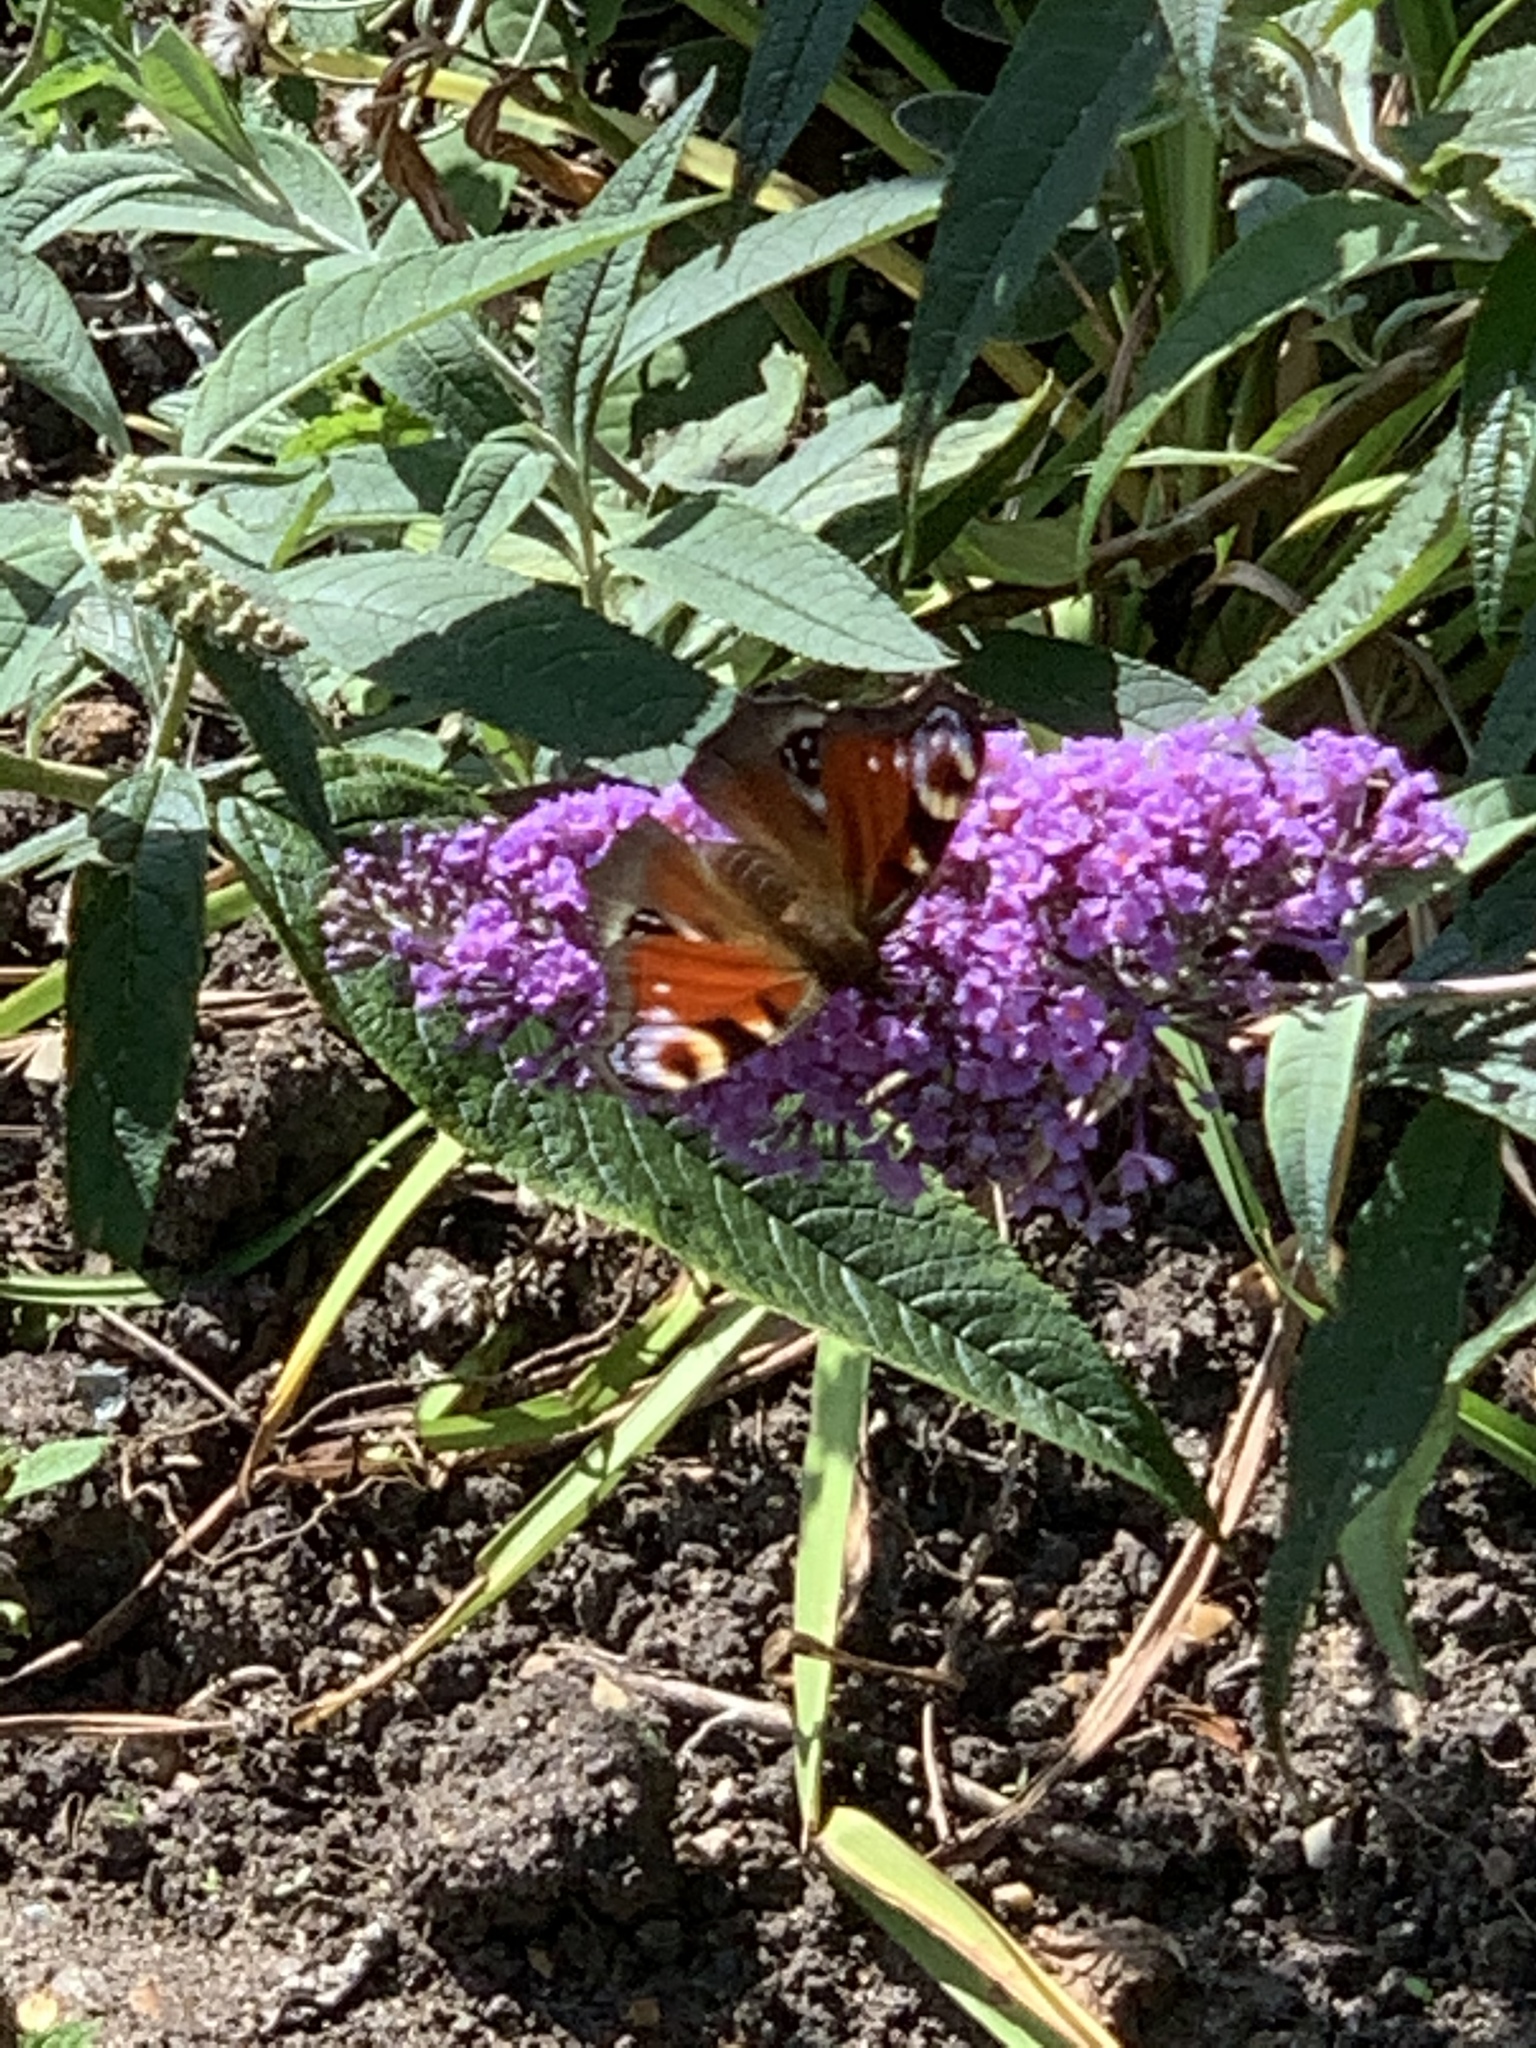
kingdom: Animalia
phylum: Arthropoda
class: Insecta
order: Lepidoptera
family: Nymphalidae
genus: Aglais
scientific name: Aglais io
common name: Peacock
